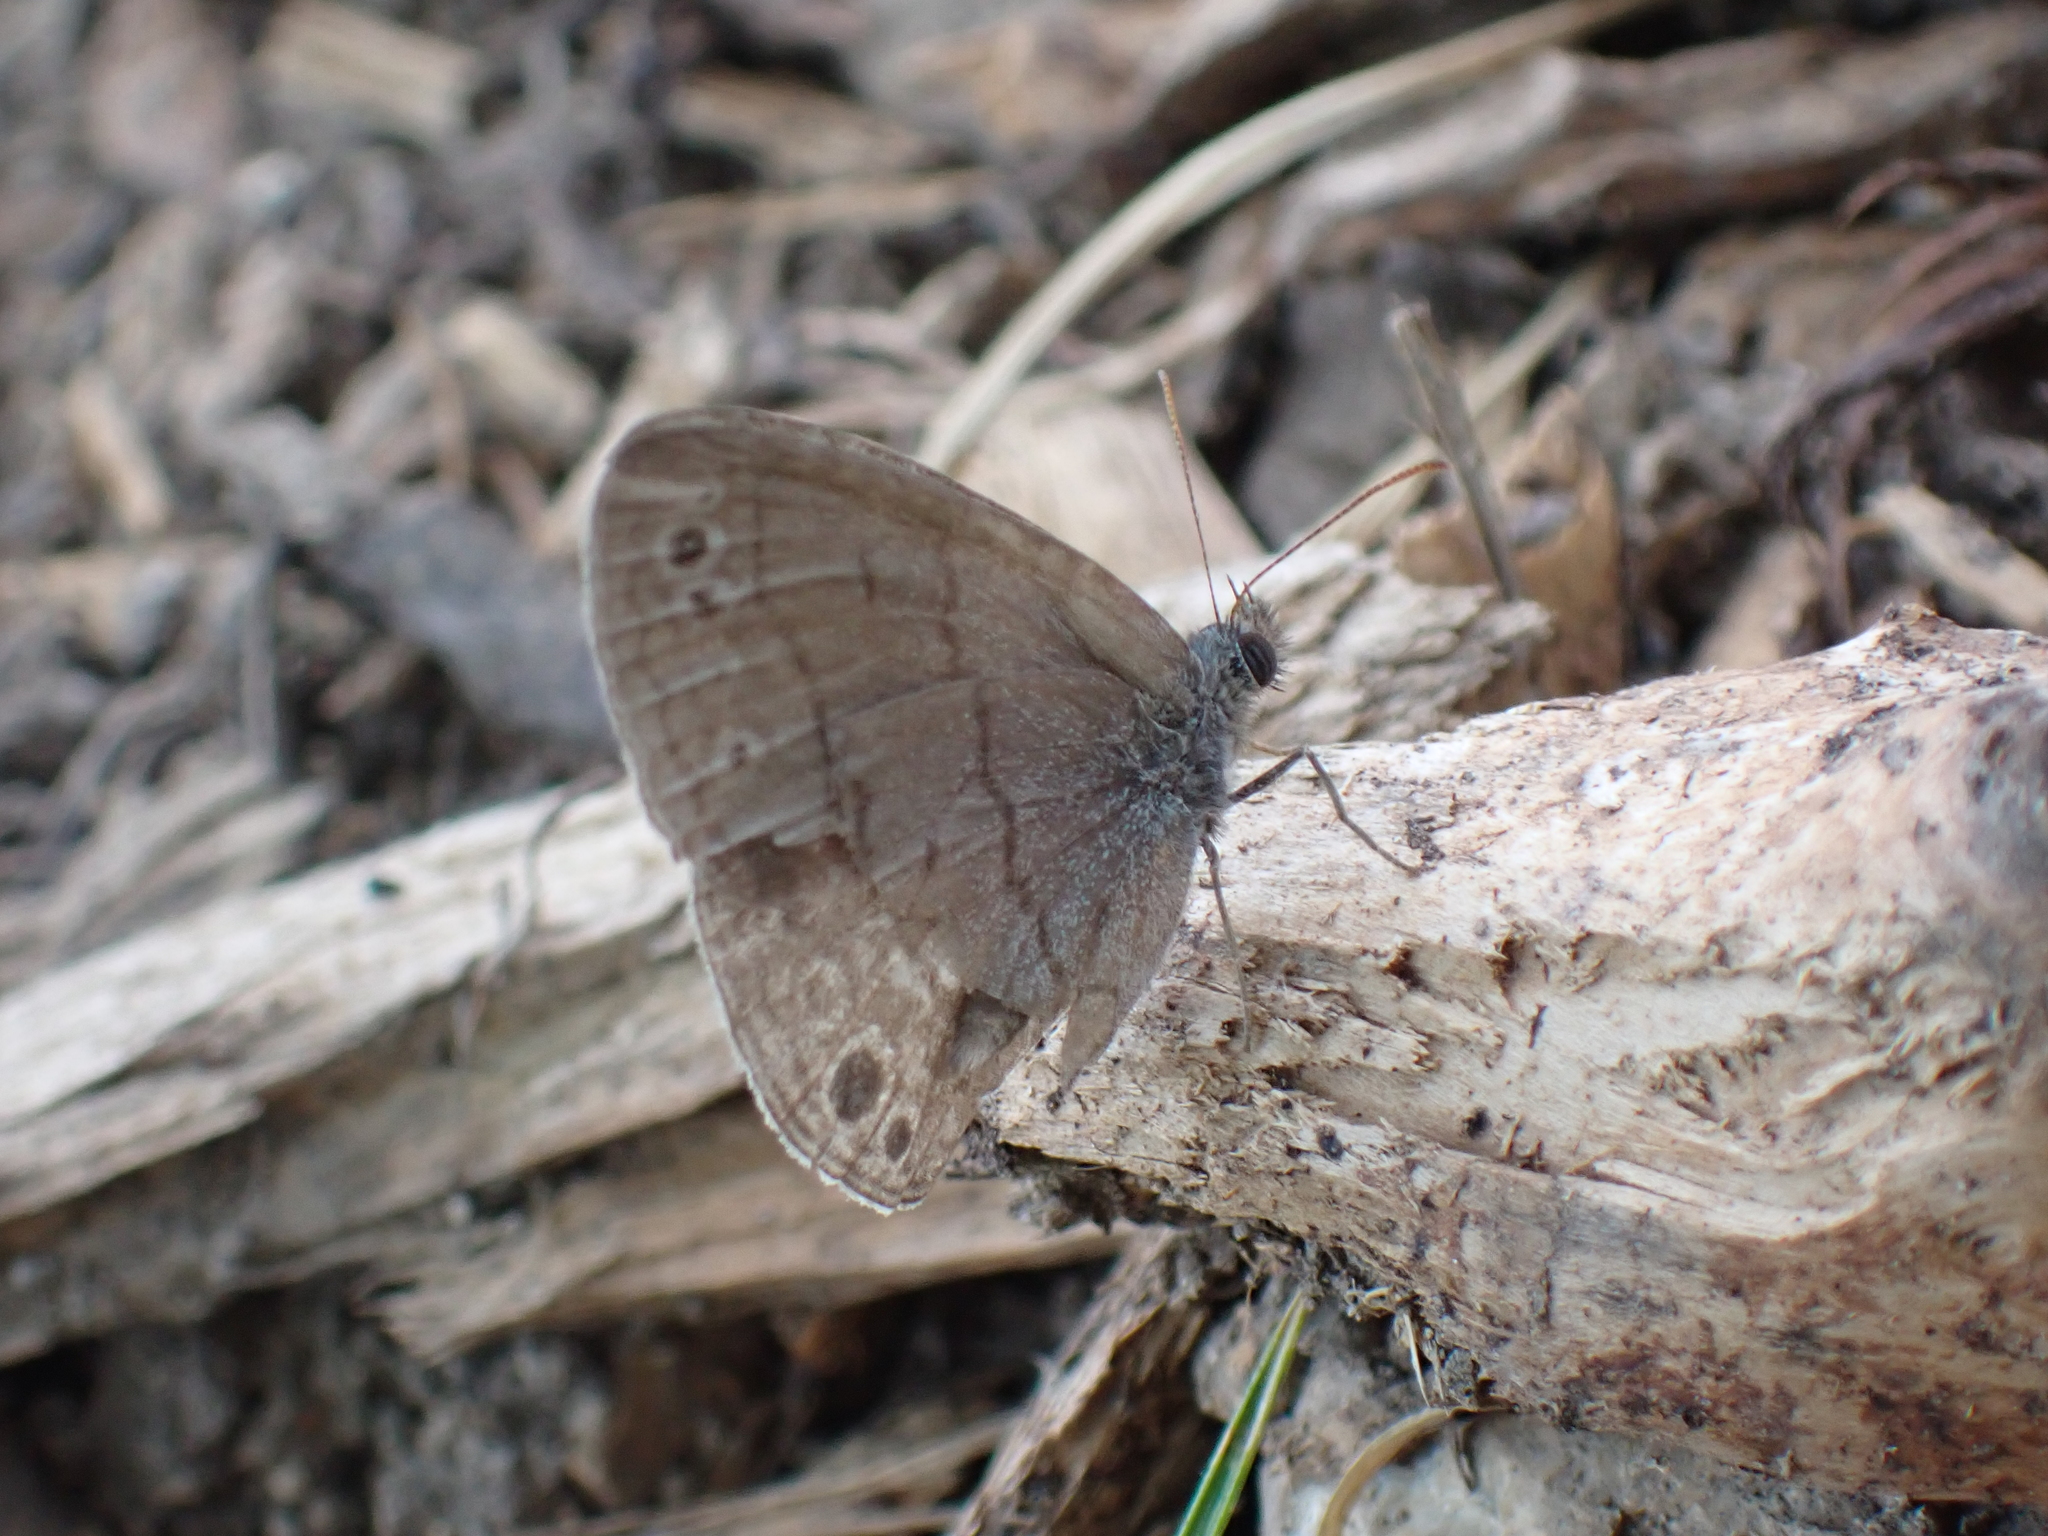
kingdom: Animalia
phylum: Arthropoda
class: Insecta
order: Lepidoptera
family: Nymphalidae
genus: Hermeuptychia
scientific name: Hermeuptychia hermes
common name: Hermes satyr
